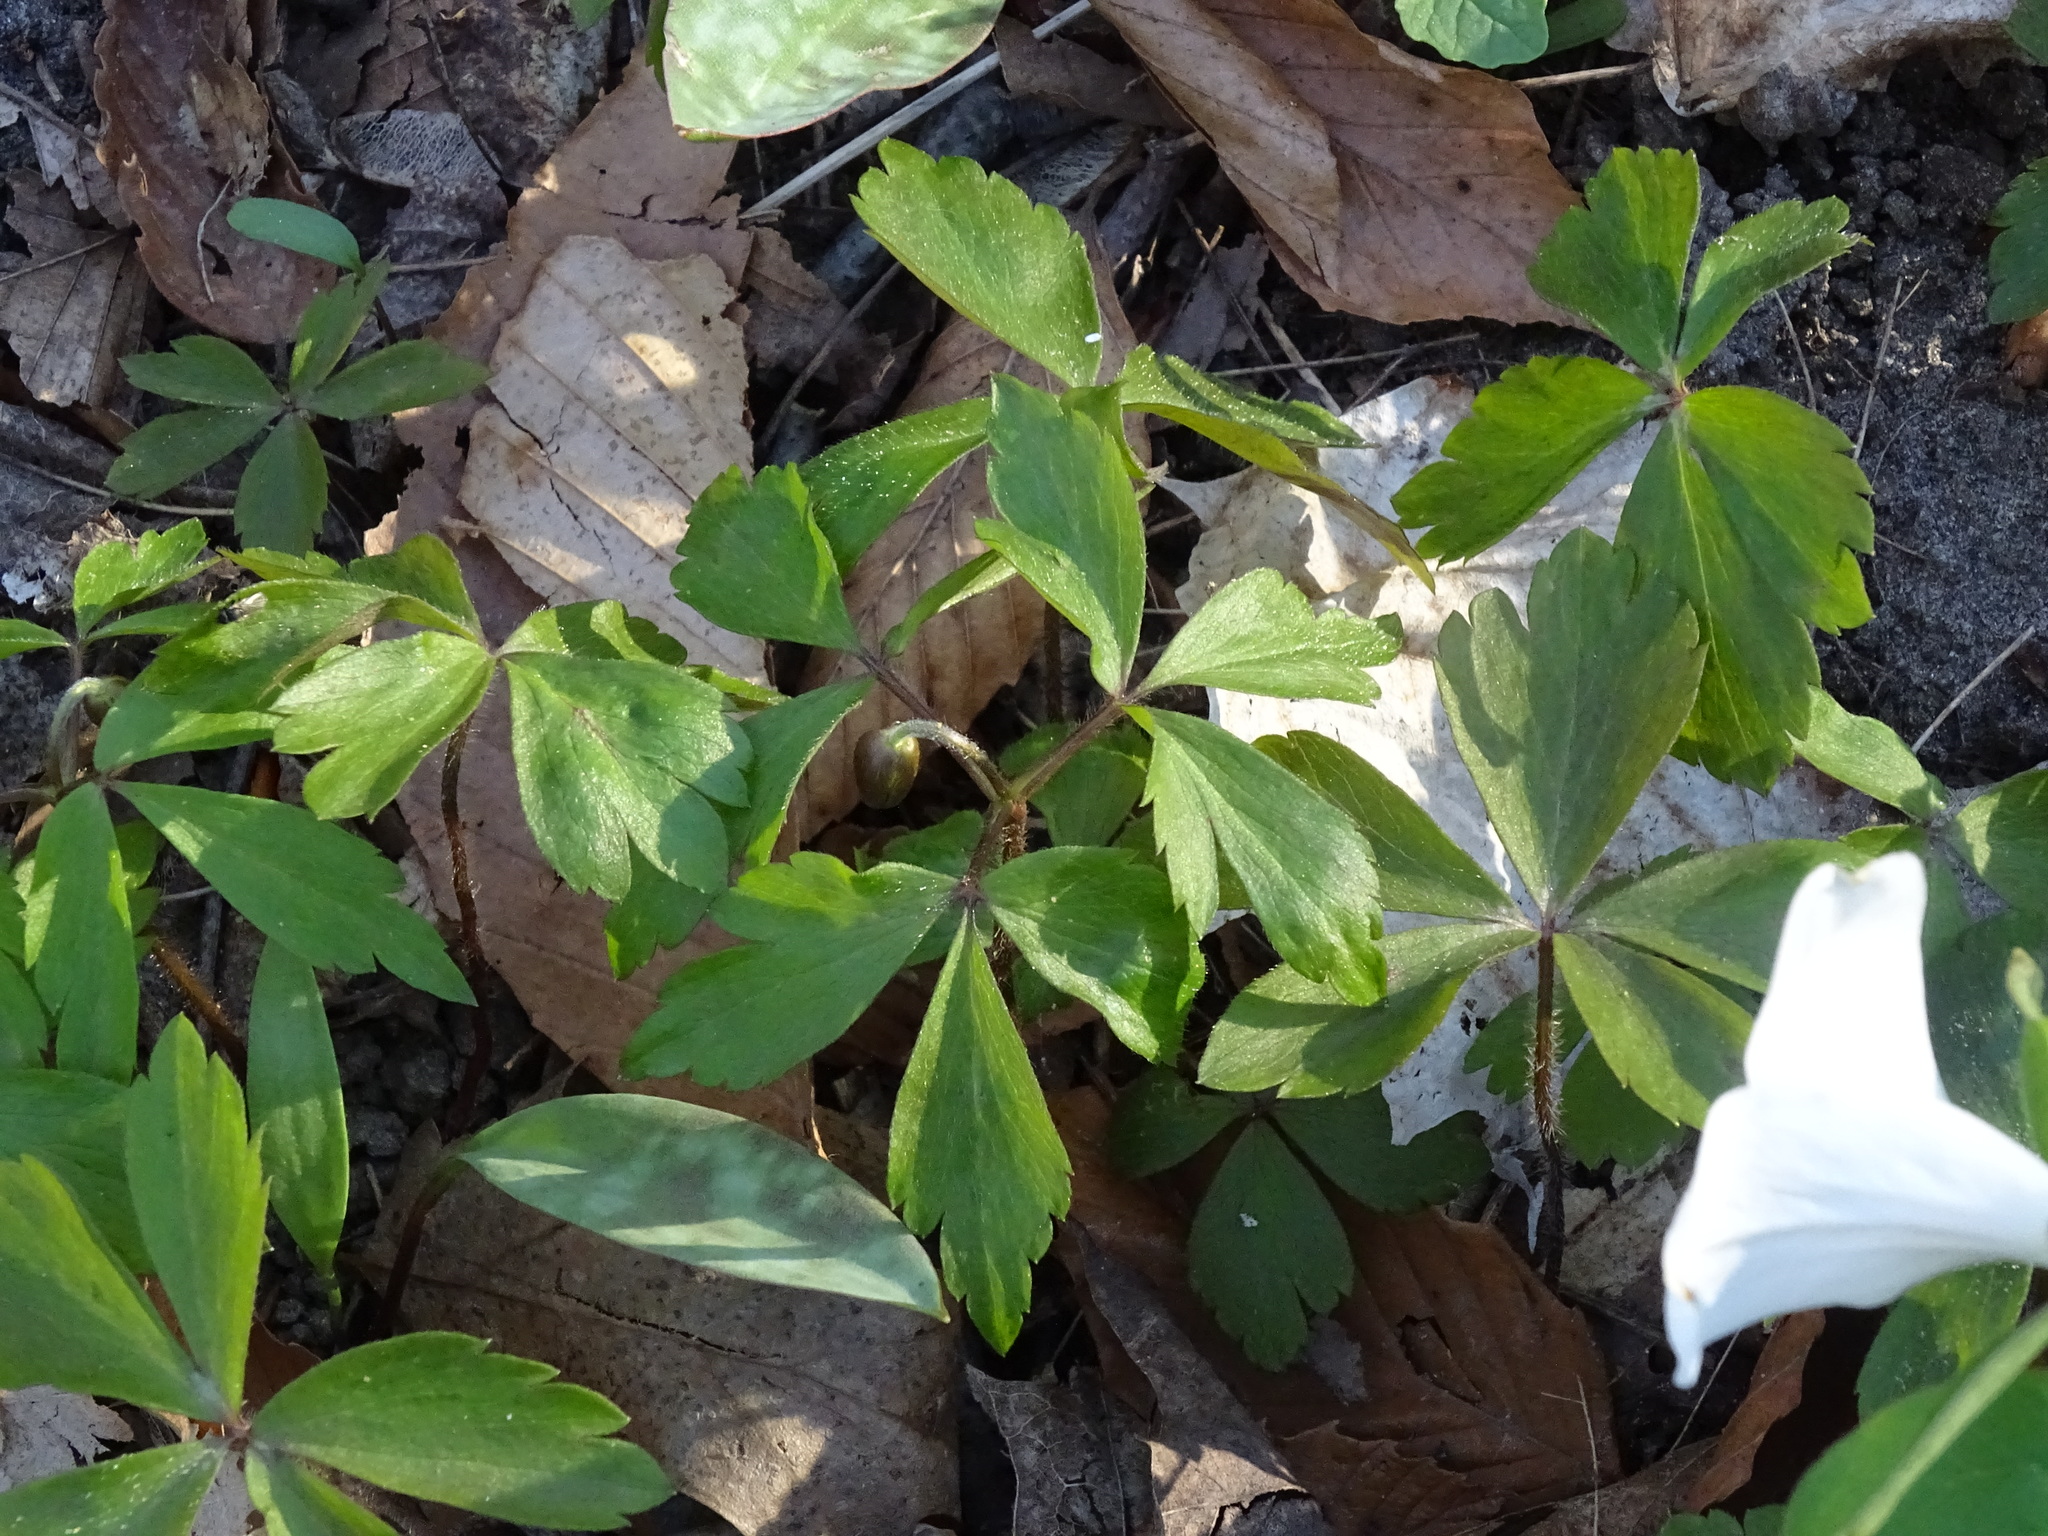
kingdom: Plantae
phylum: Tracheophyta
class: Magnoliopsida
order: Ranunculales
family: Ranunculaceae
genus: Anemone
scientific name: Anemone quinquefolia
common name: Wood anemone
